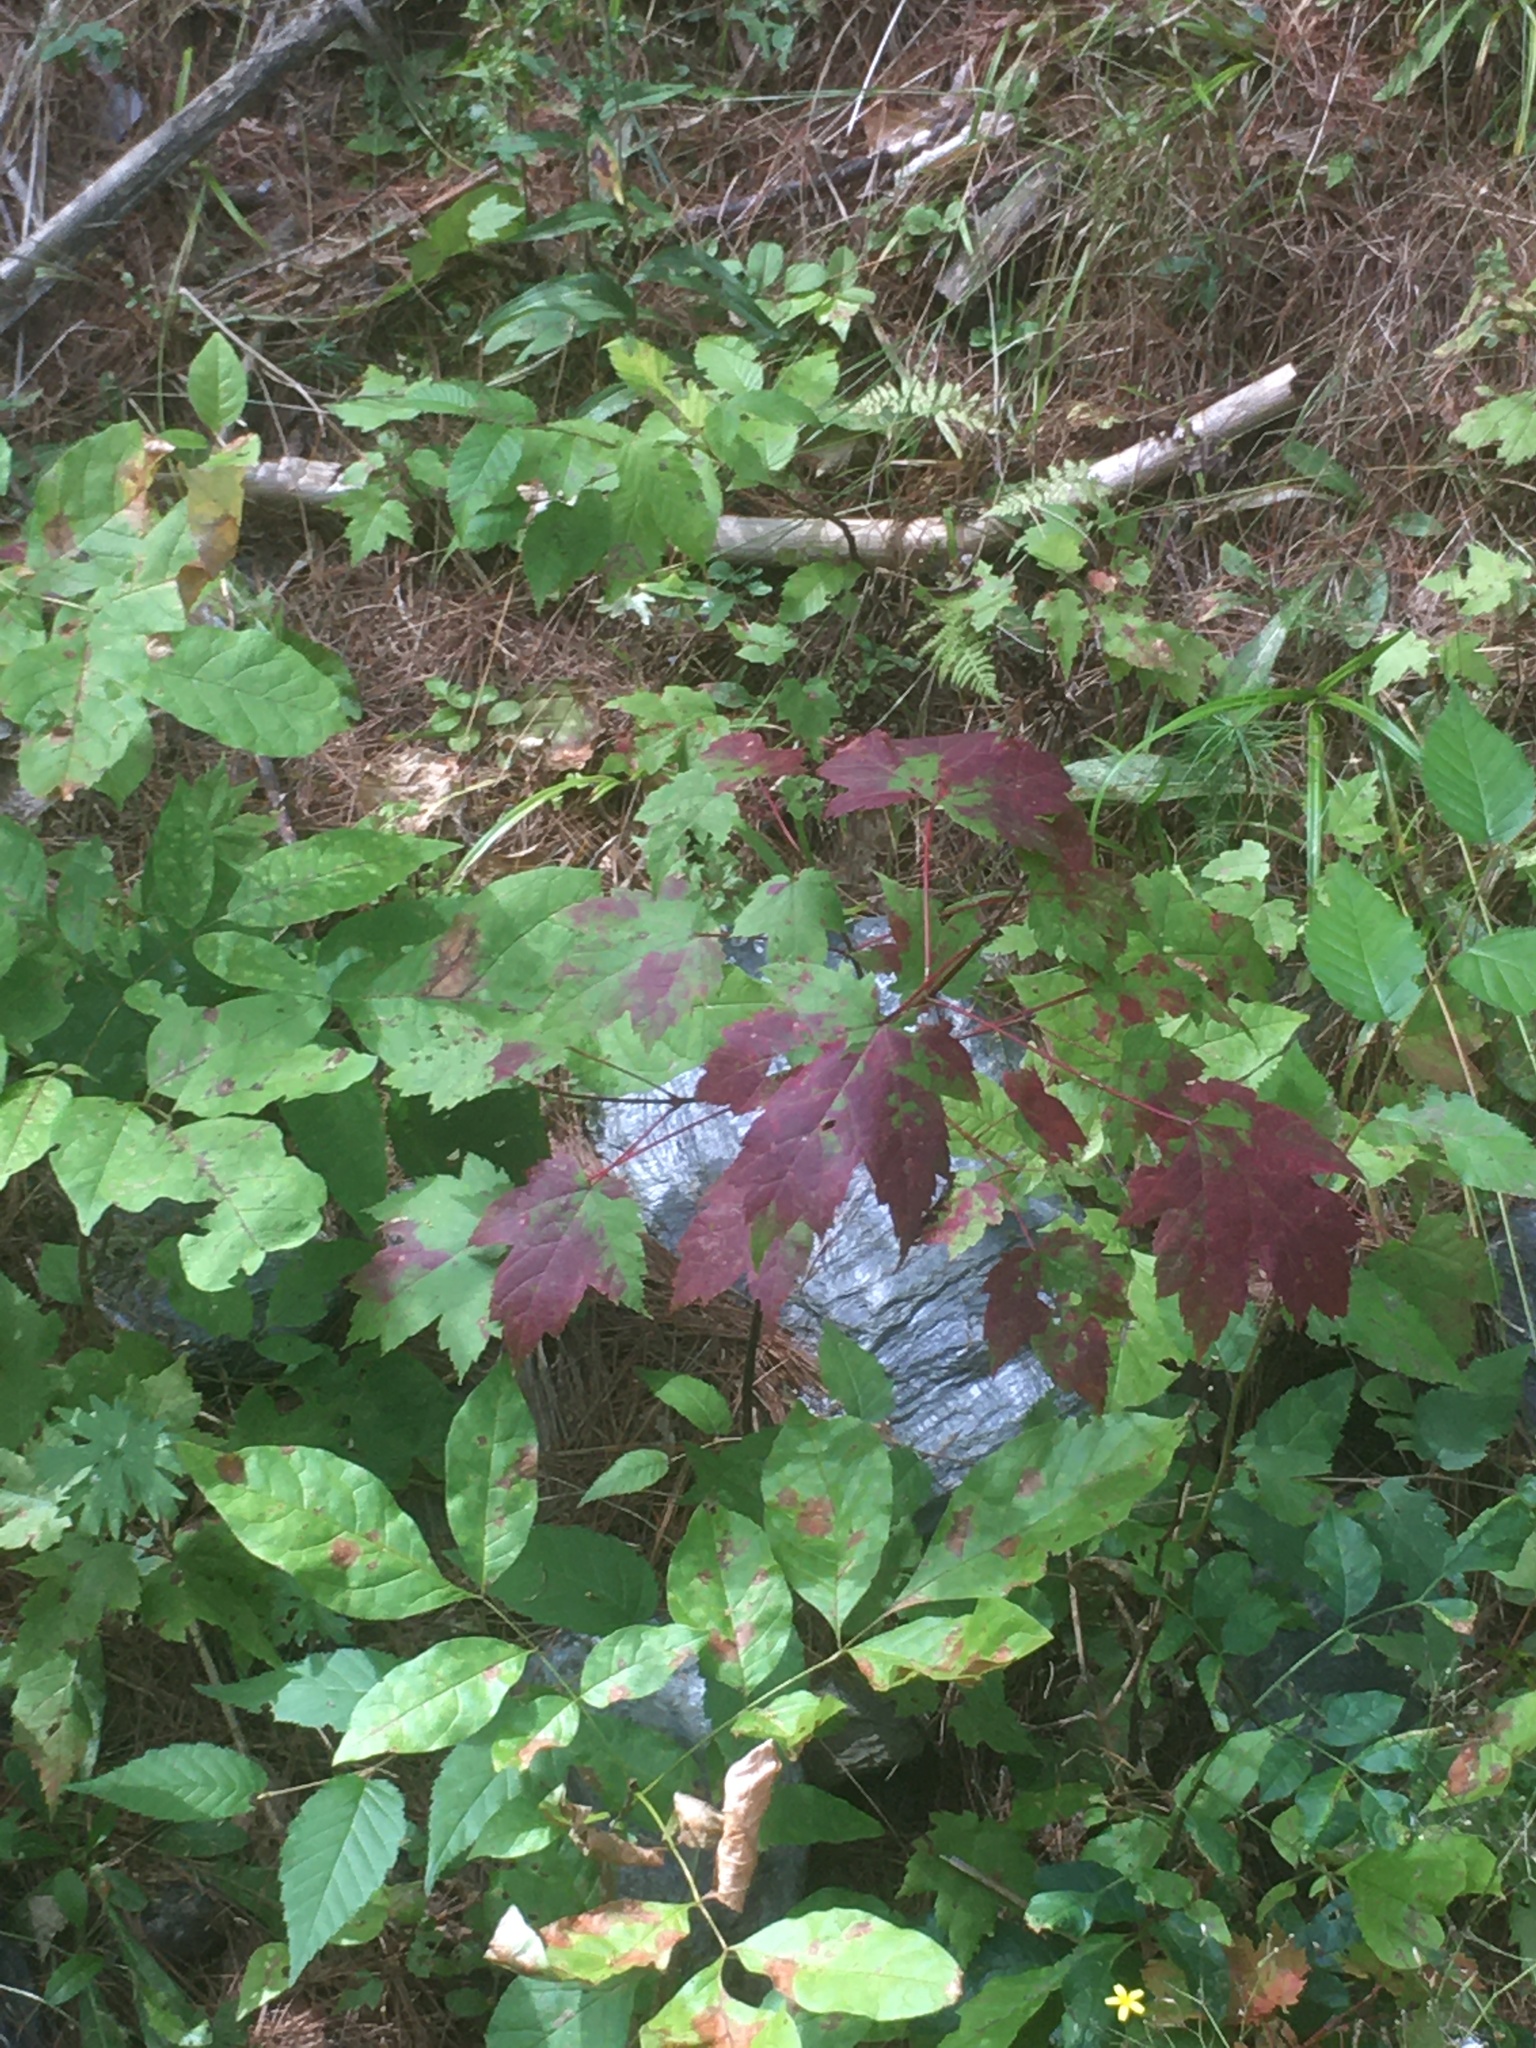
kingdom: Plantae
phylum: Tracheophyta
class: Magnoliopsida
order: Sapindales
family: Sapindaceae
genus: Acer
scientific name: Acer rubrum
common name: Red maple
